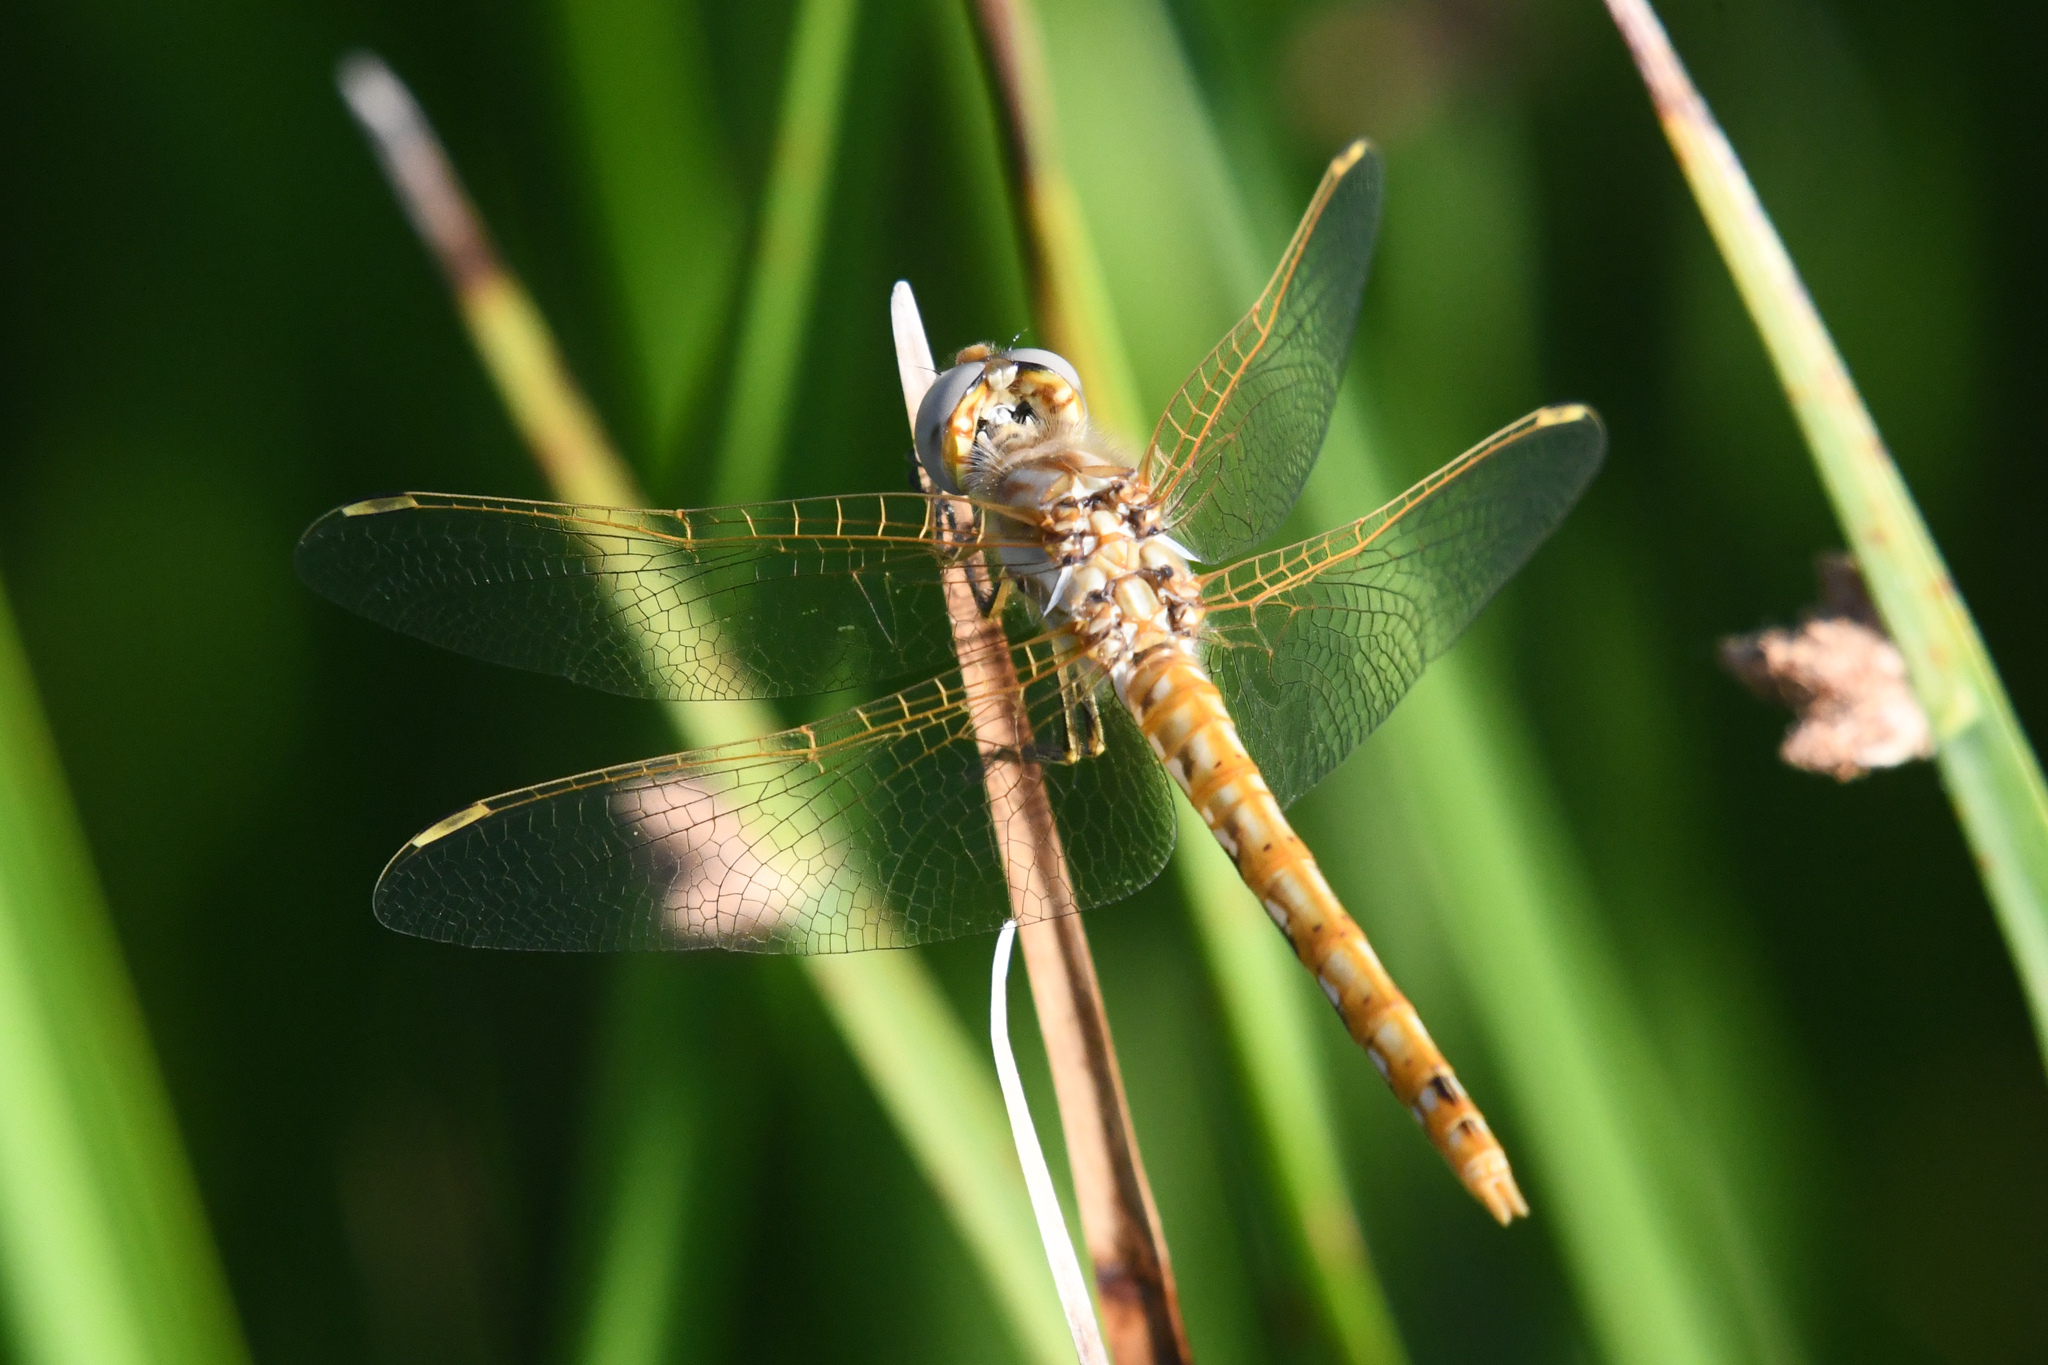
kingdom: Animalia
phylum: Arthropoda
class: Insecta
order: Odonata
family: Libellulidae
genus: Sympetrum
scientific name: Sympetrum corruptum
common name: Variegated meadowhawk
